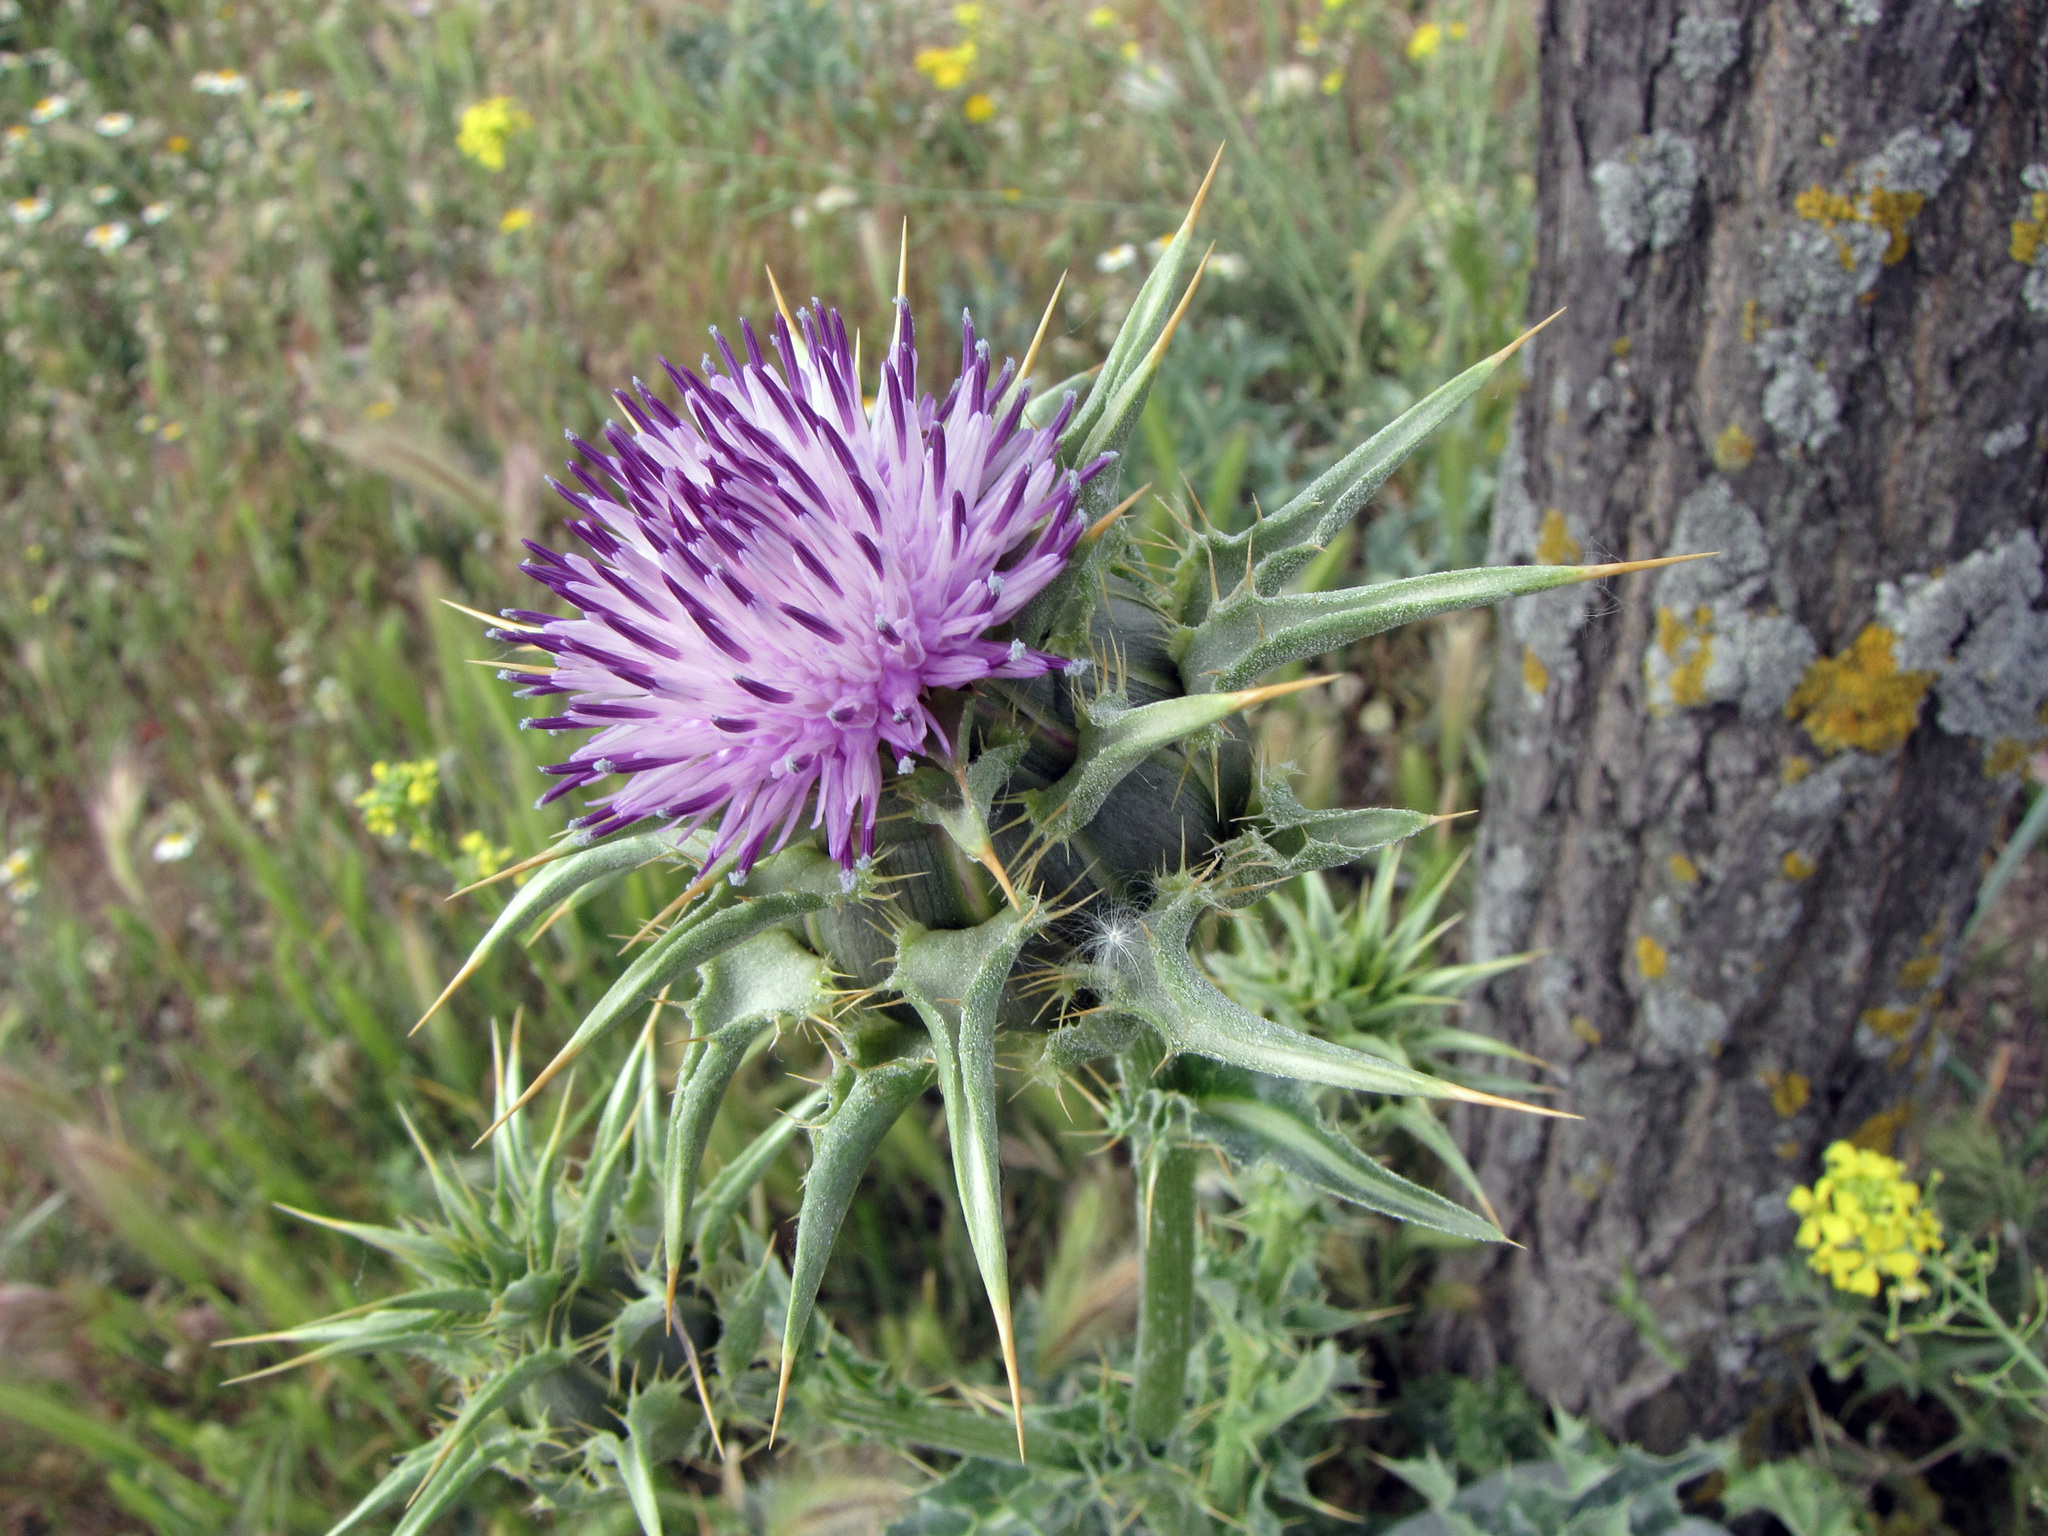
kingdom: Plantae
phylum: Tracheophyta
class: Magnoliopsida
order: Asterales
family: Asteraceae
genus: Silybum
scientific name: Silybum marianum
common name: Milk thistle
